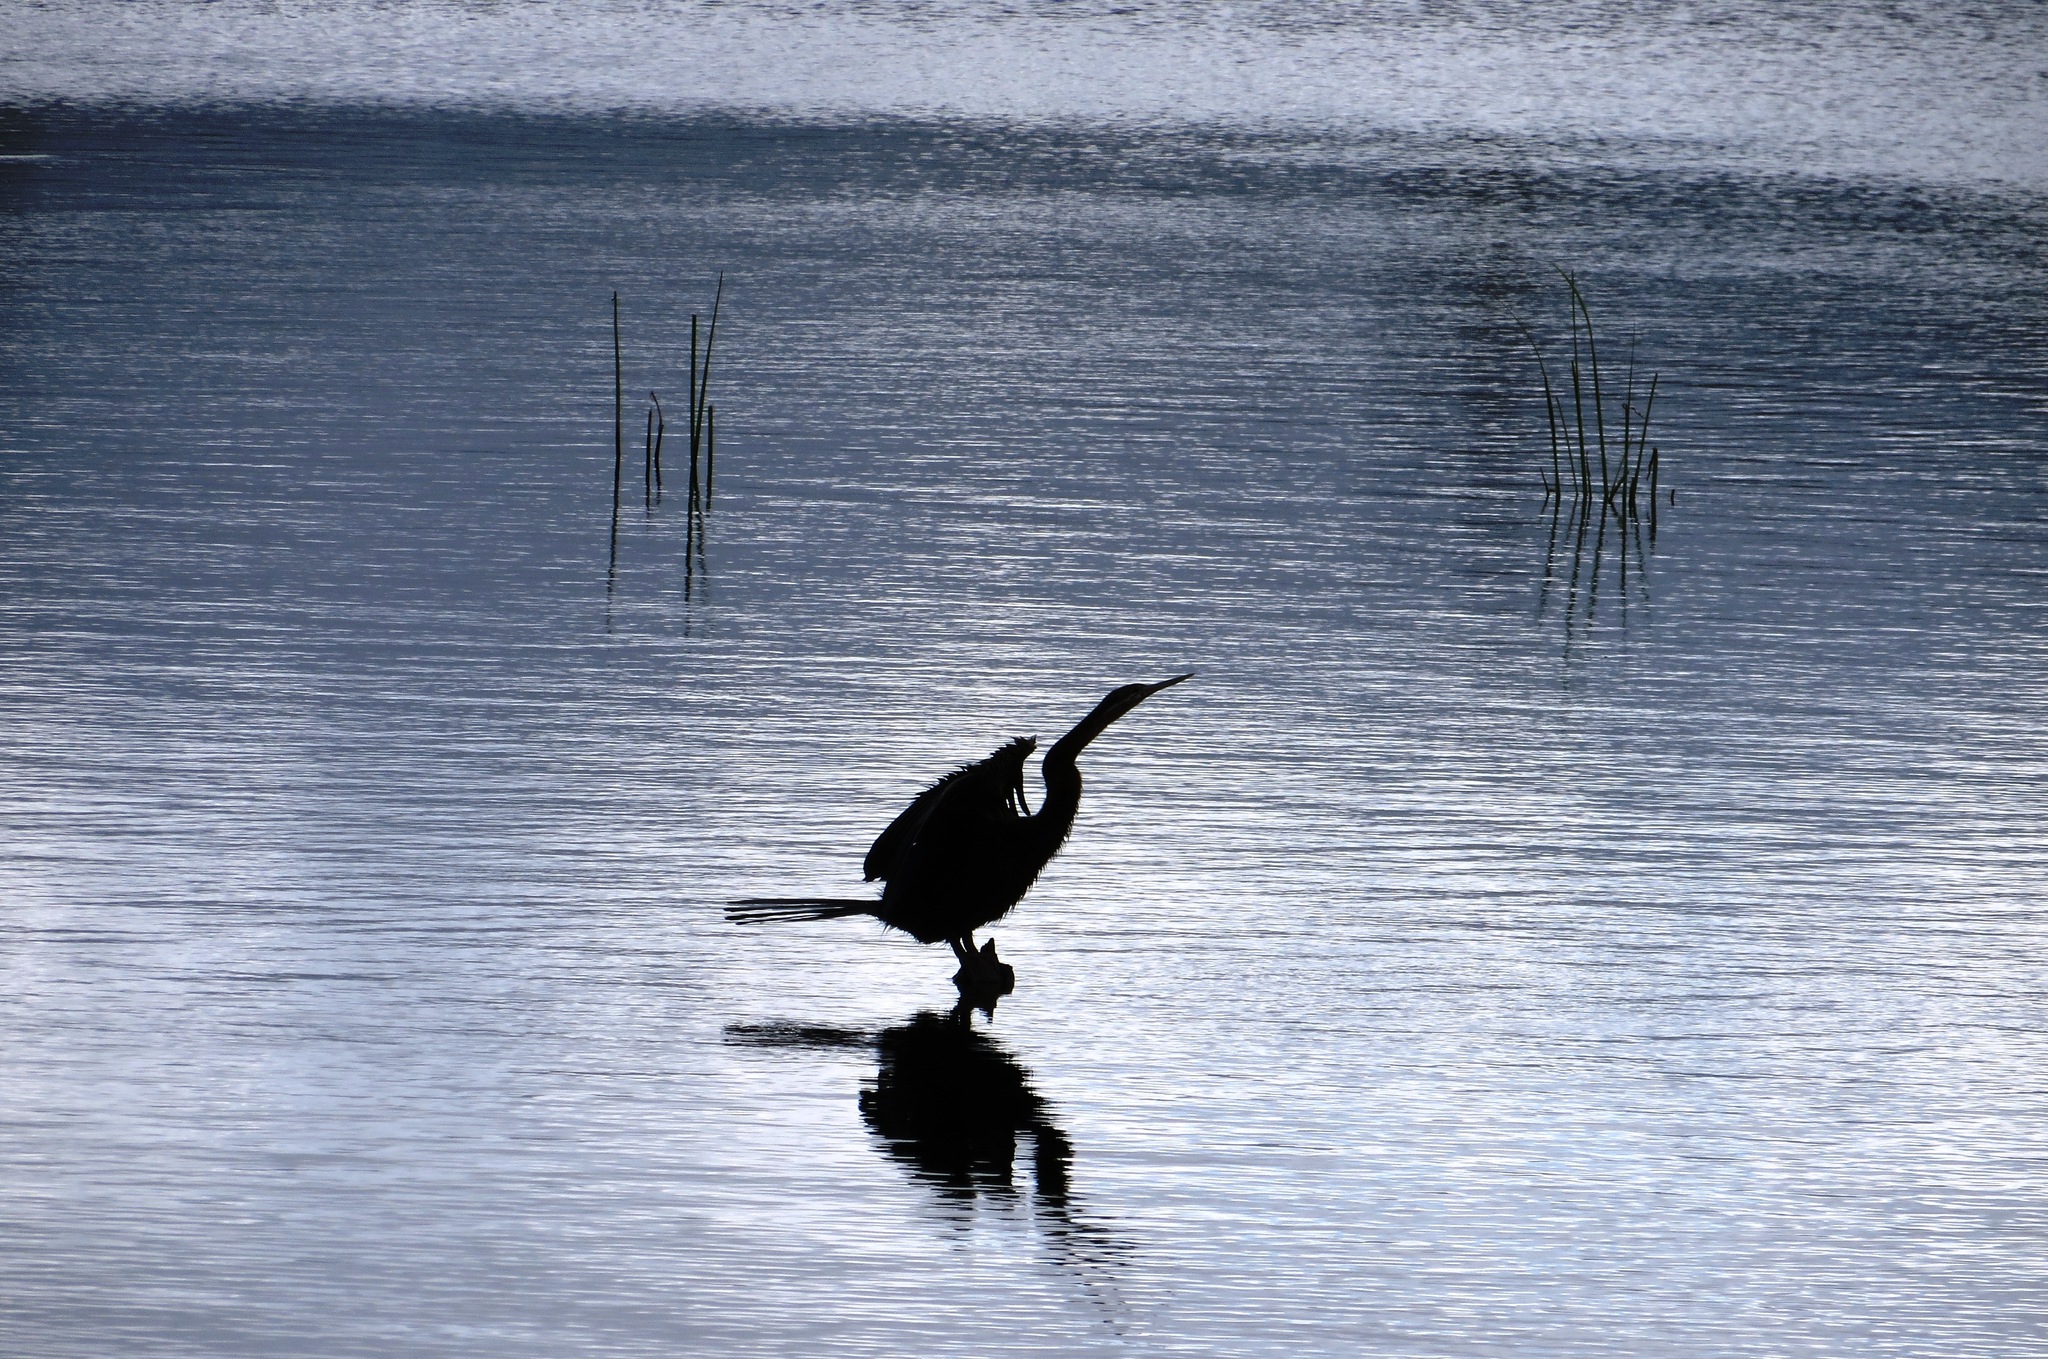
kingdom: Animalia
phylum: Chordata
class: Aves
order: Suliformes
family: Anhingidae
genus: Anhinga
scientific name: Anhinga rufa
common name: African darter
